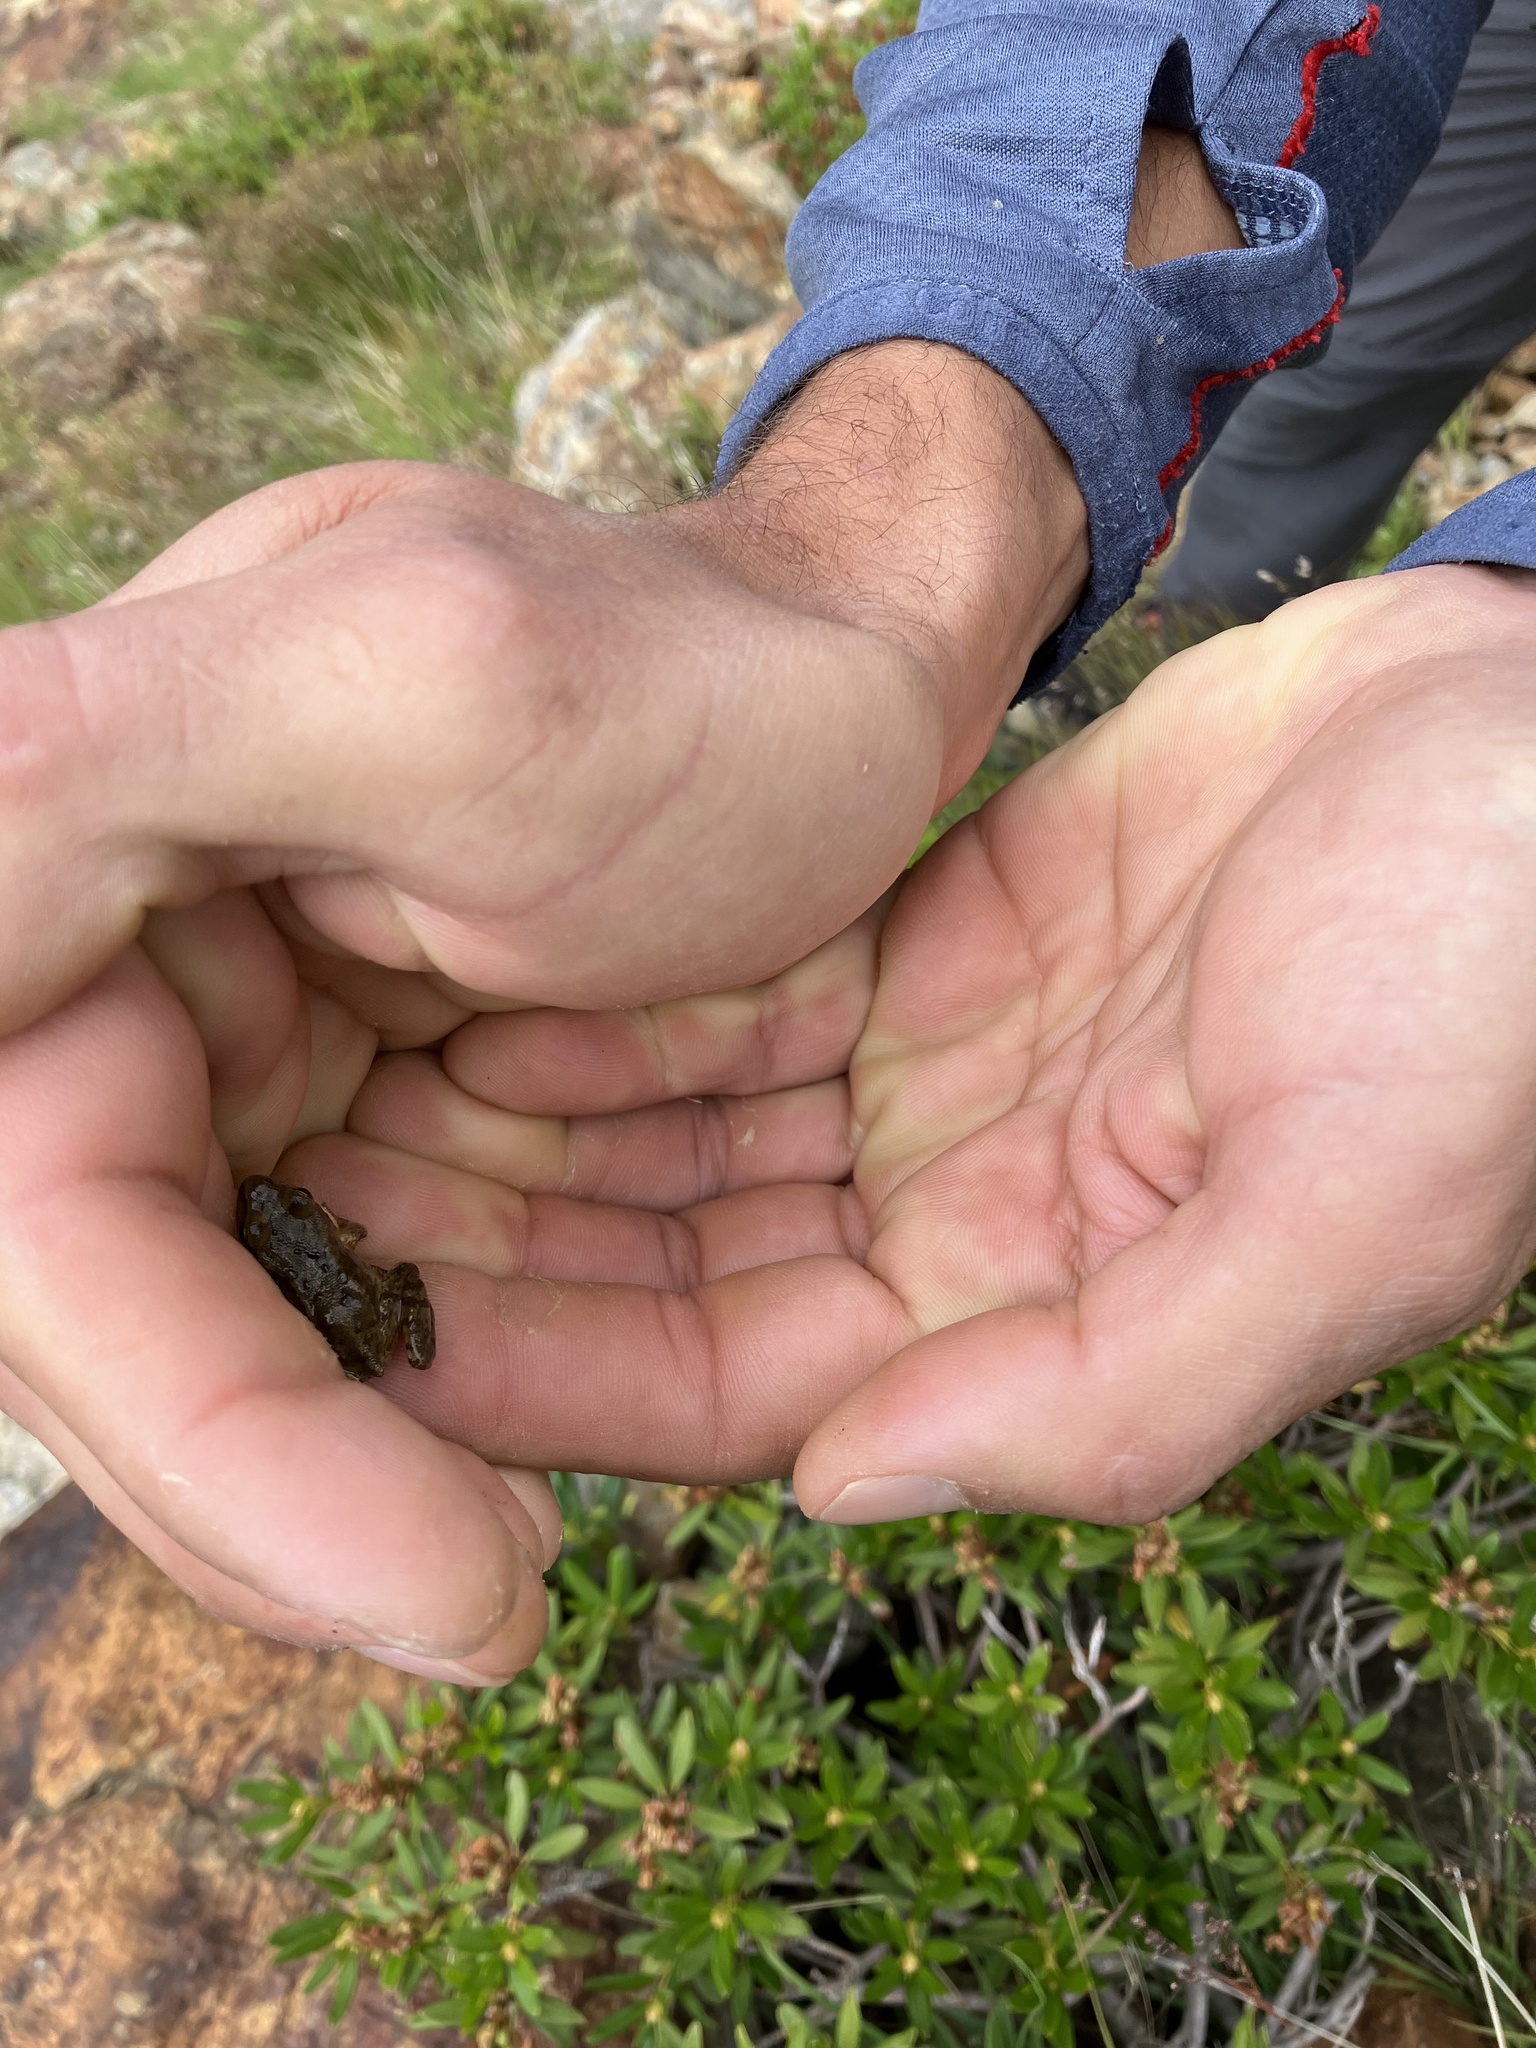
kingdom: Animalia
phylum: Chordata
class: Amphibia
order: Anura
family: Ranidae
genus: Rana
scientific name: Rana temporaria
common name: Common frog
